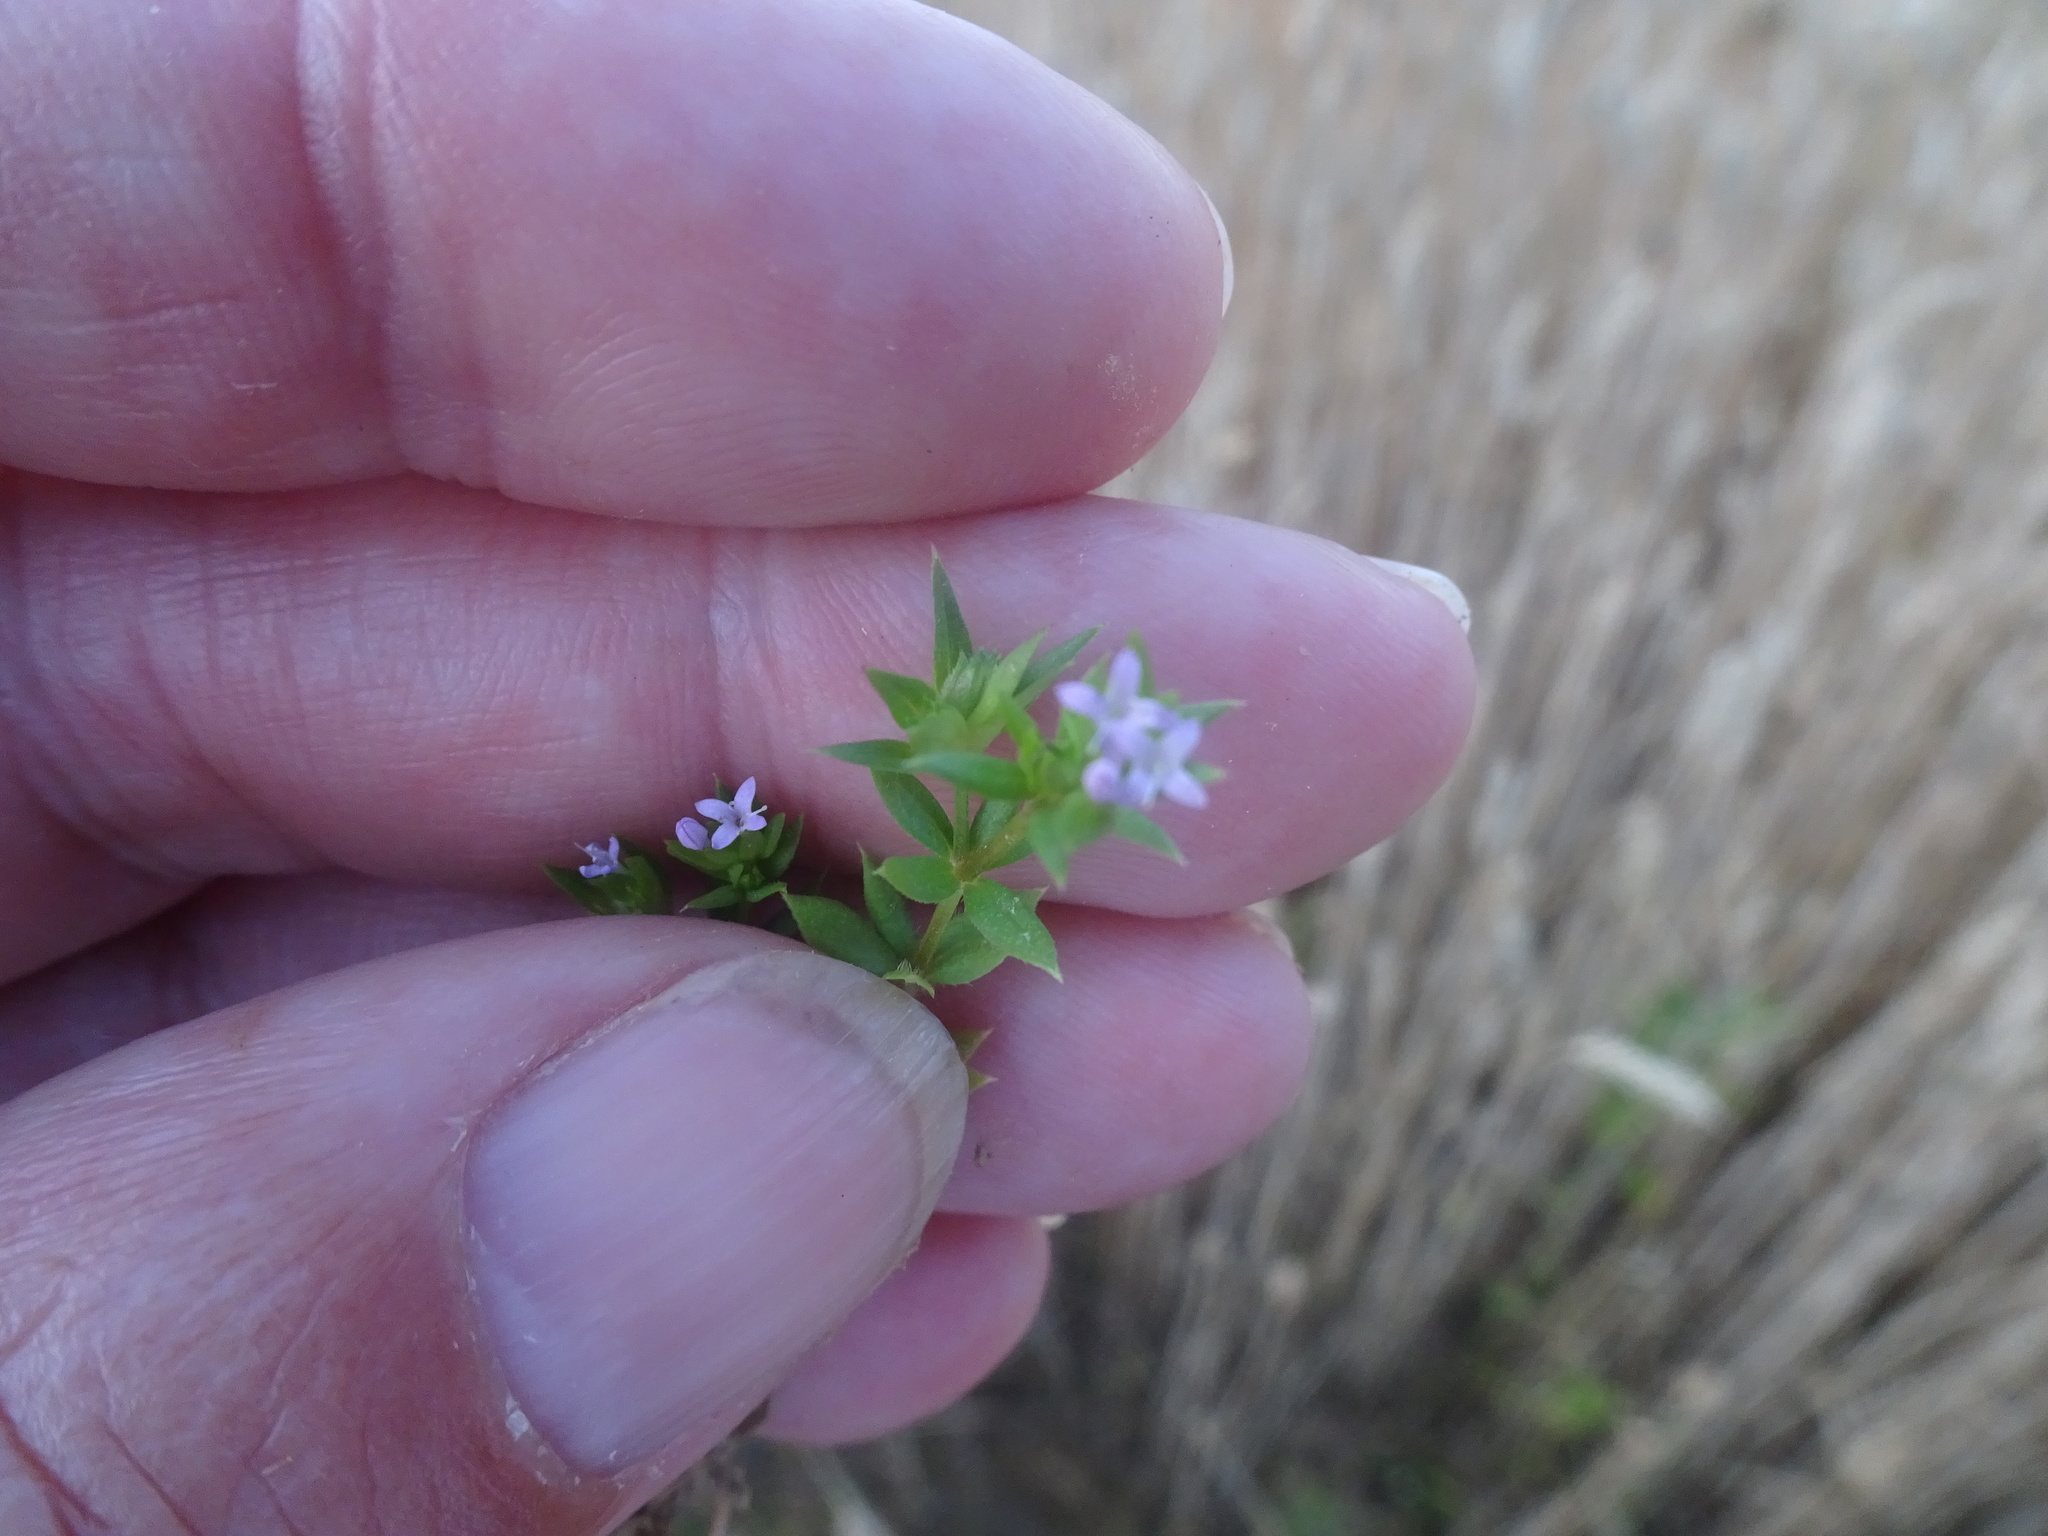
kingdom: Plantae
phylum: Tracheophyta
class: Magnoliopsida
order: Gentianales
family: Rubiaceae
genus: Sherardia
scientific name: Sherardia arvensis
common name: Field madder
